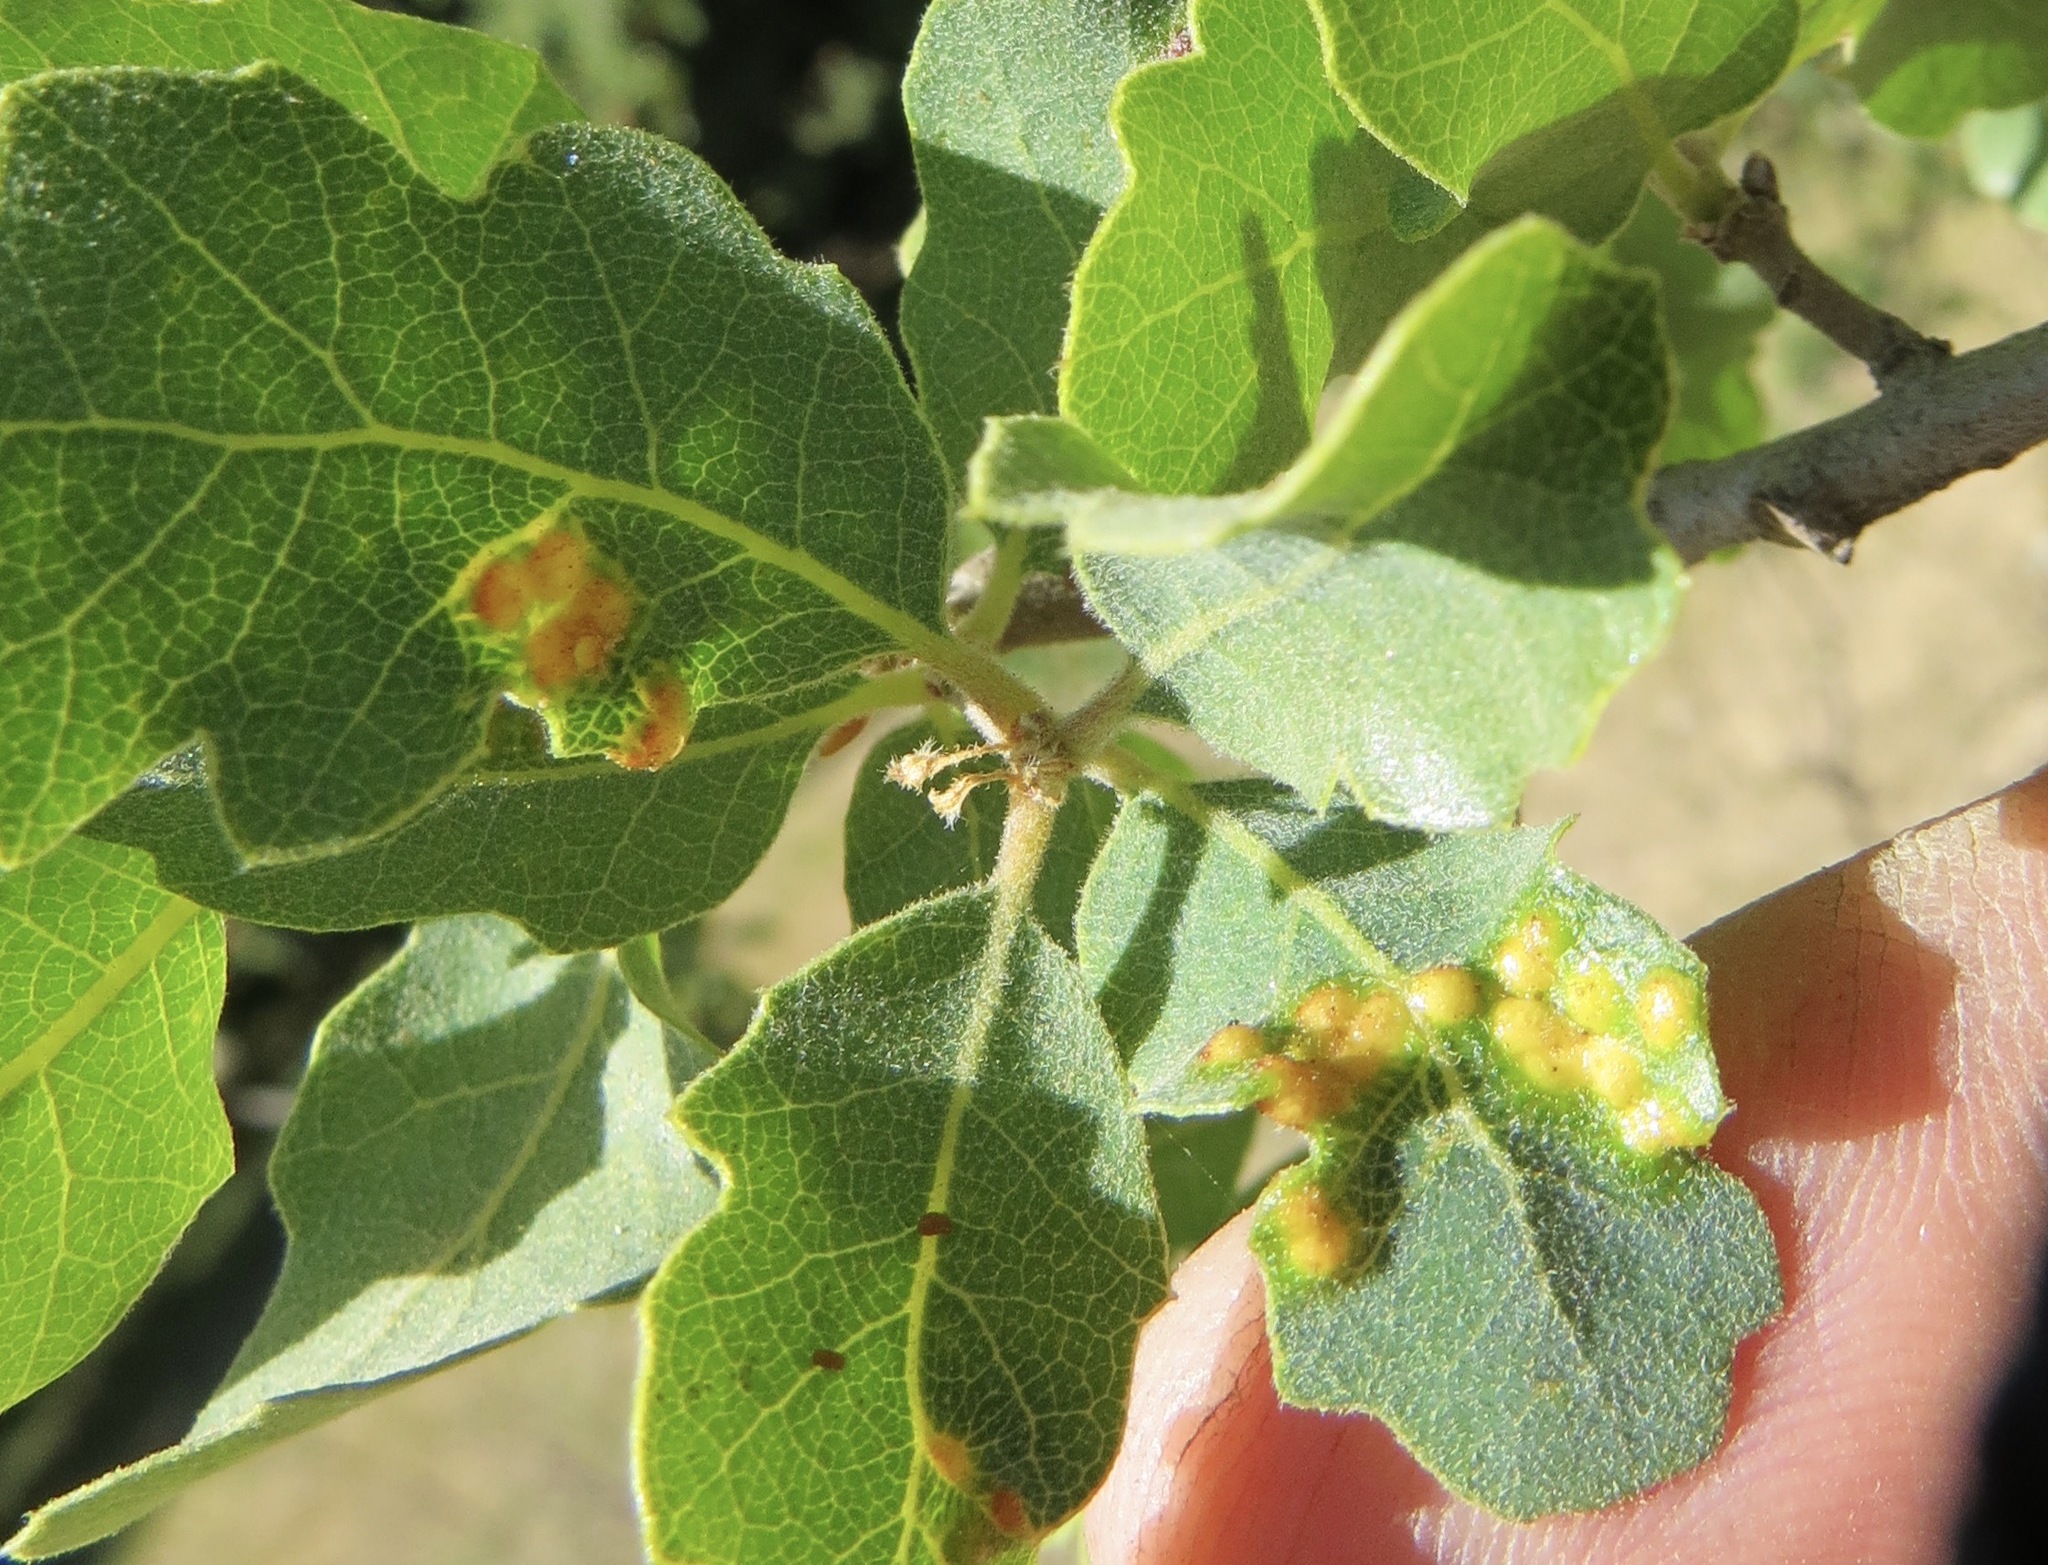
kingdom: Animalia
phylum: Arthropoda
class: Insecta
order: Hymenoptera
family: Cynipidae
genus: Neuroterus
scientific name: Neuroterus saltarius
